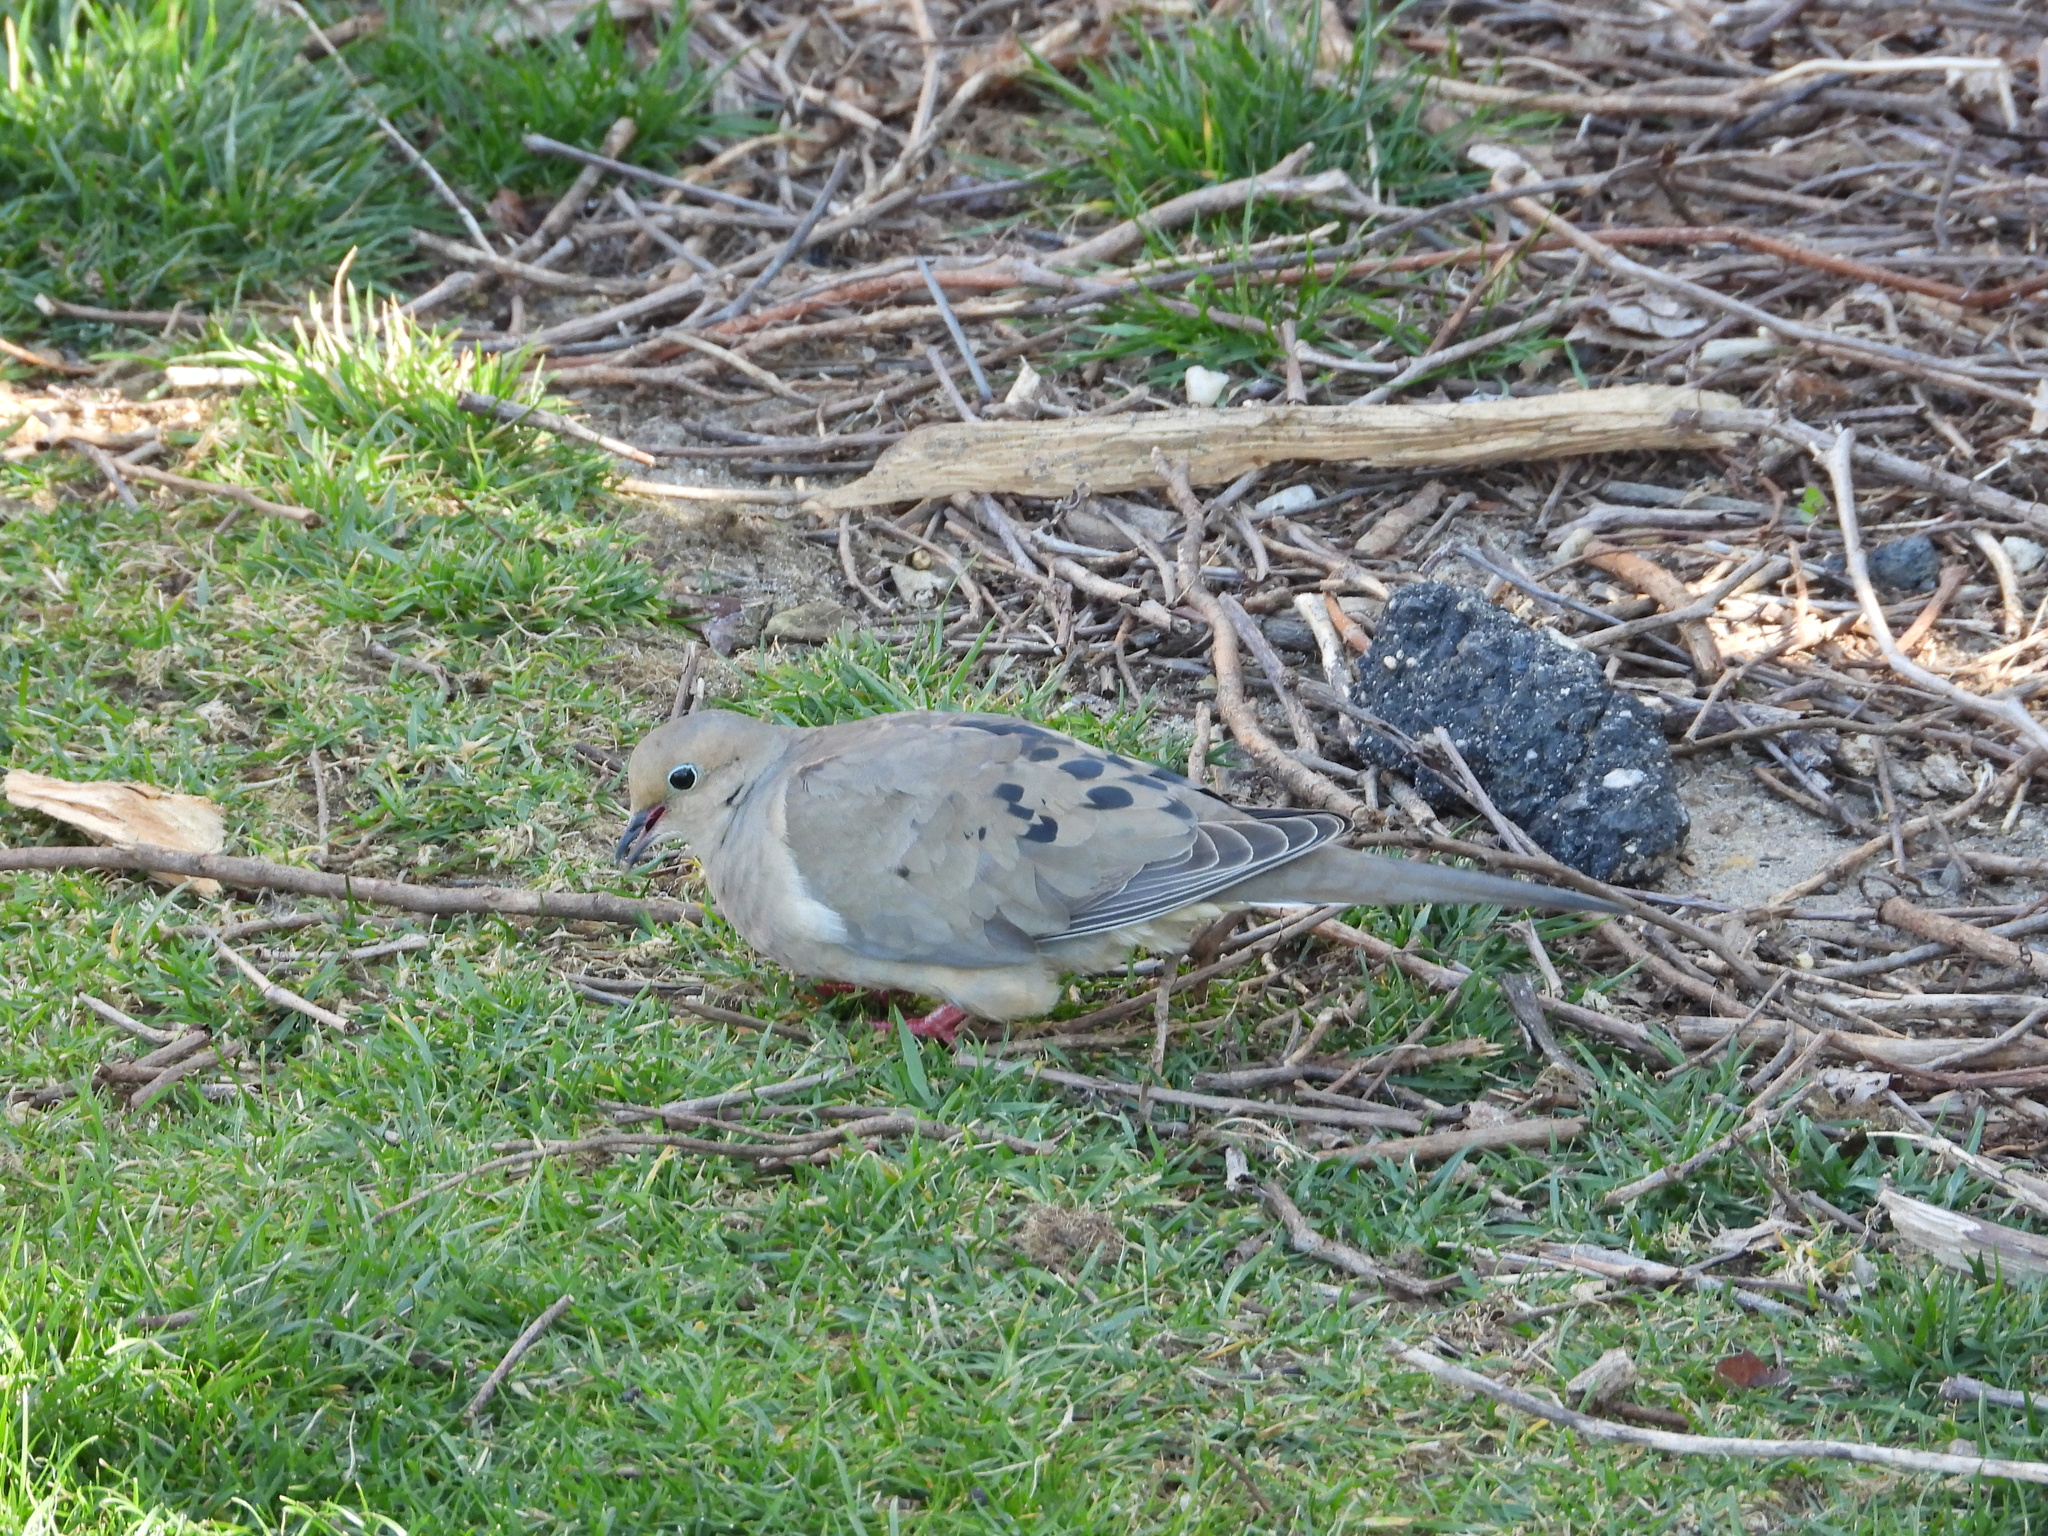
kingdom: Animalia
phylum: Chordata
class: Aves
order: Columbiformes
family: Columbidae
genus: Zenaida
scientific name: Zenaida macroura
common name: Mourning dove
